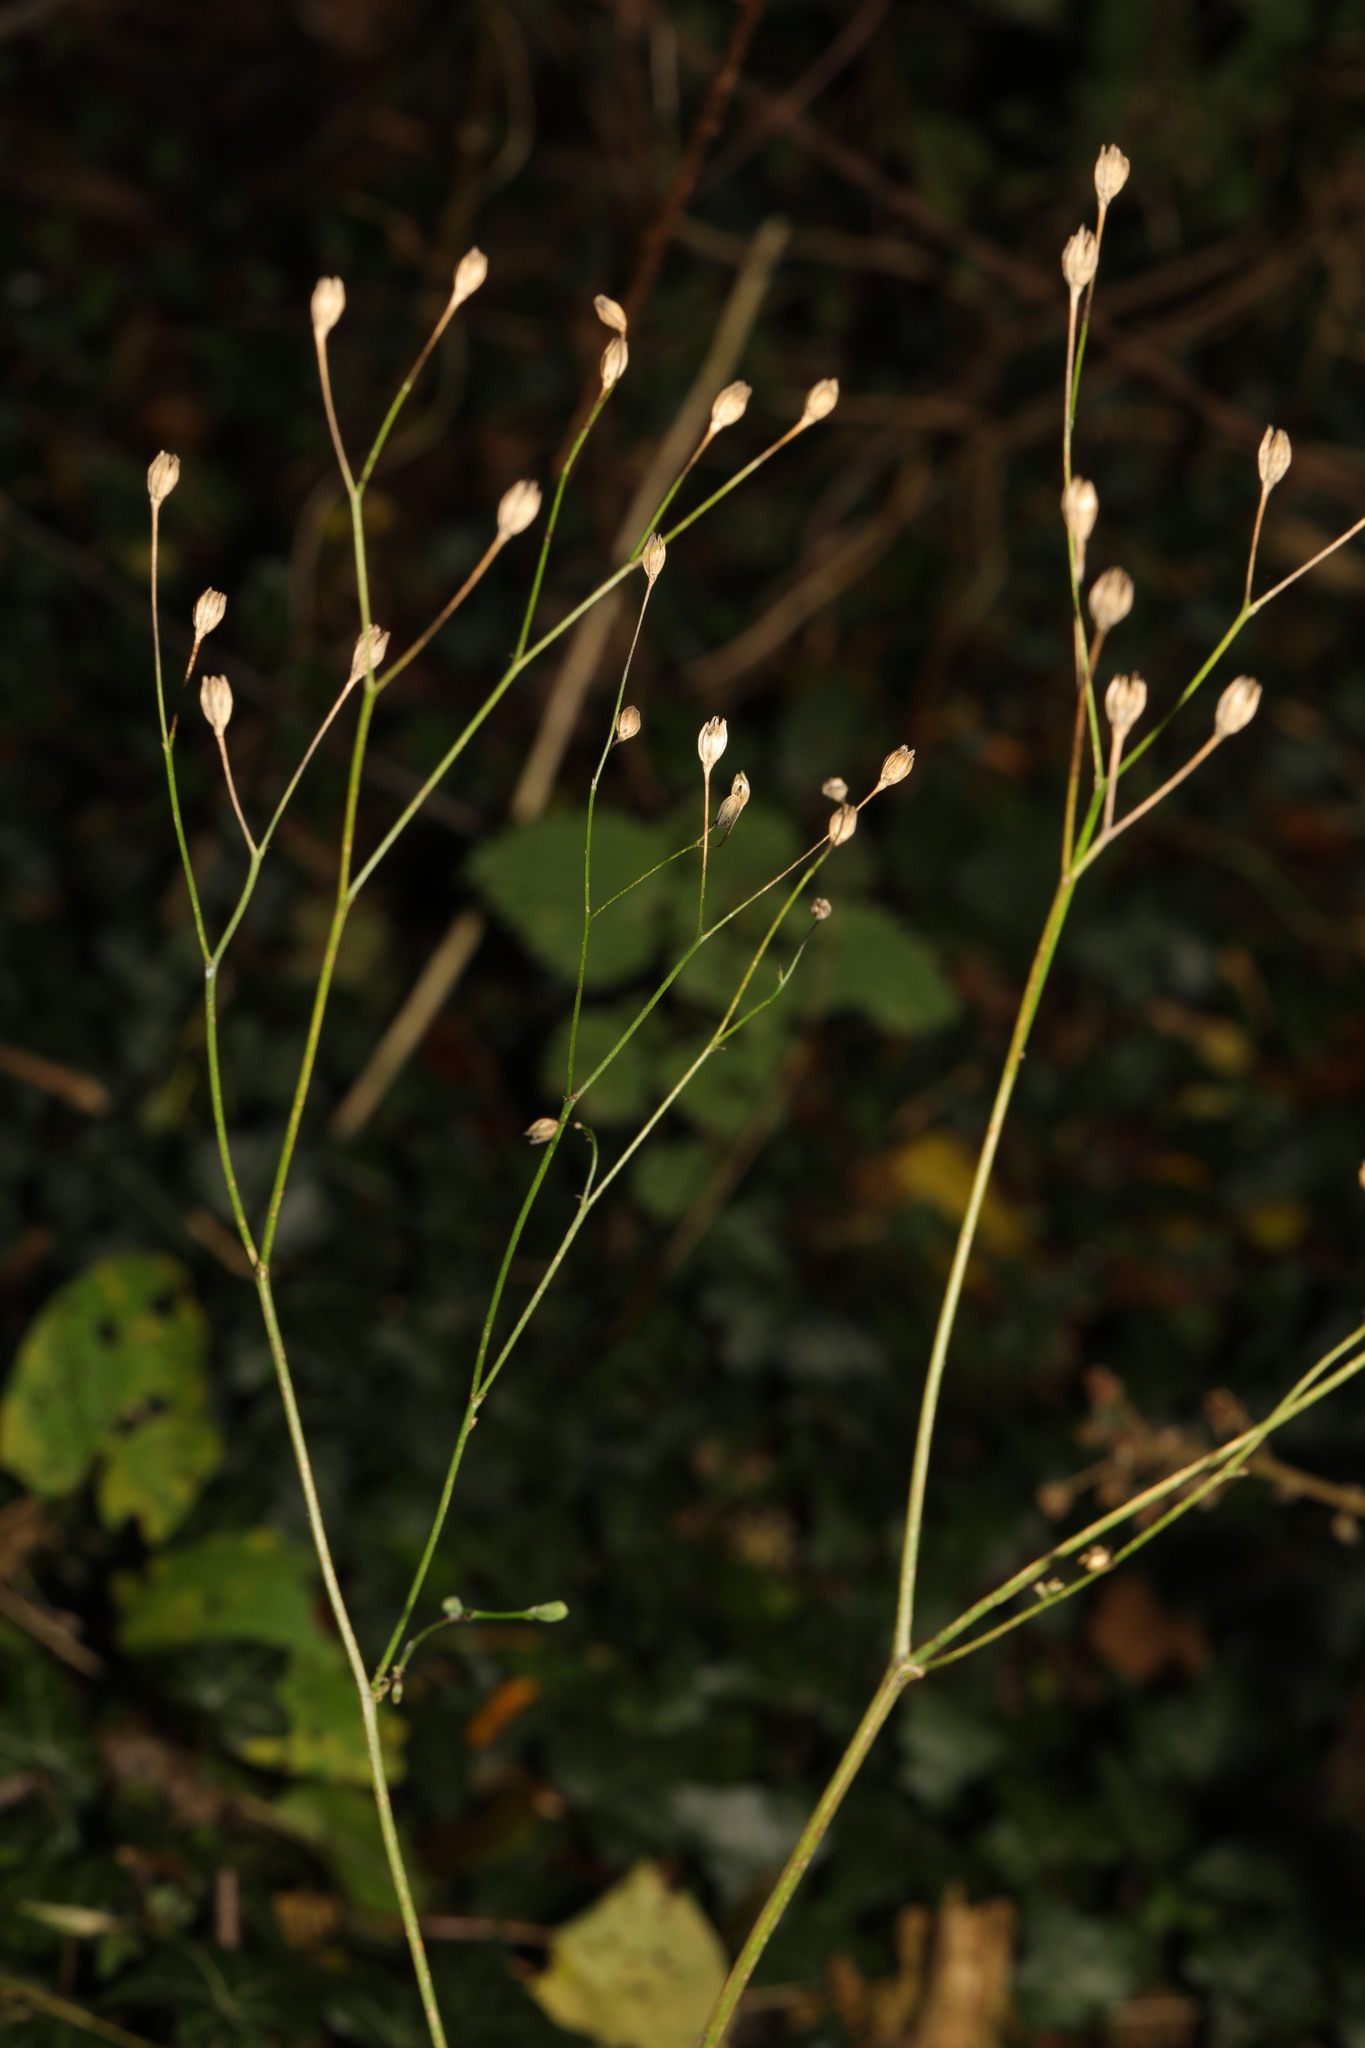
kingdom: Plantae
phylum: Tracheophyta
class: Magnoliopsida
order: Asterales
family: Asteraceae
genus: Lapsana
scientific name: Lapsana communis
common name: Nipplewort
